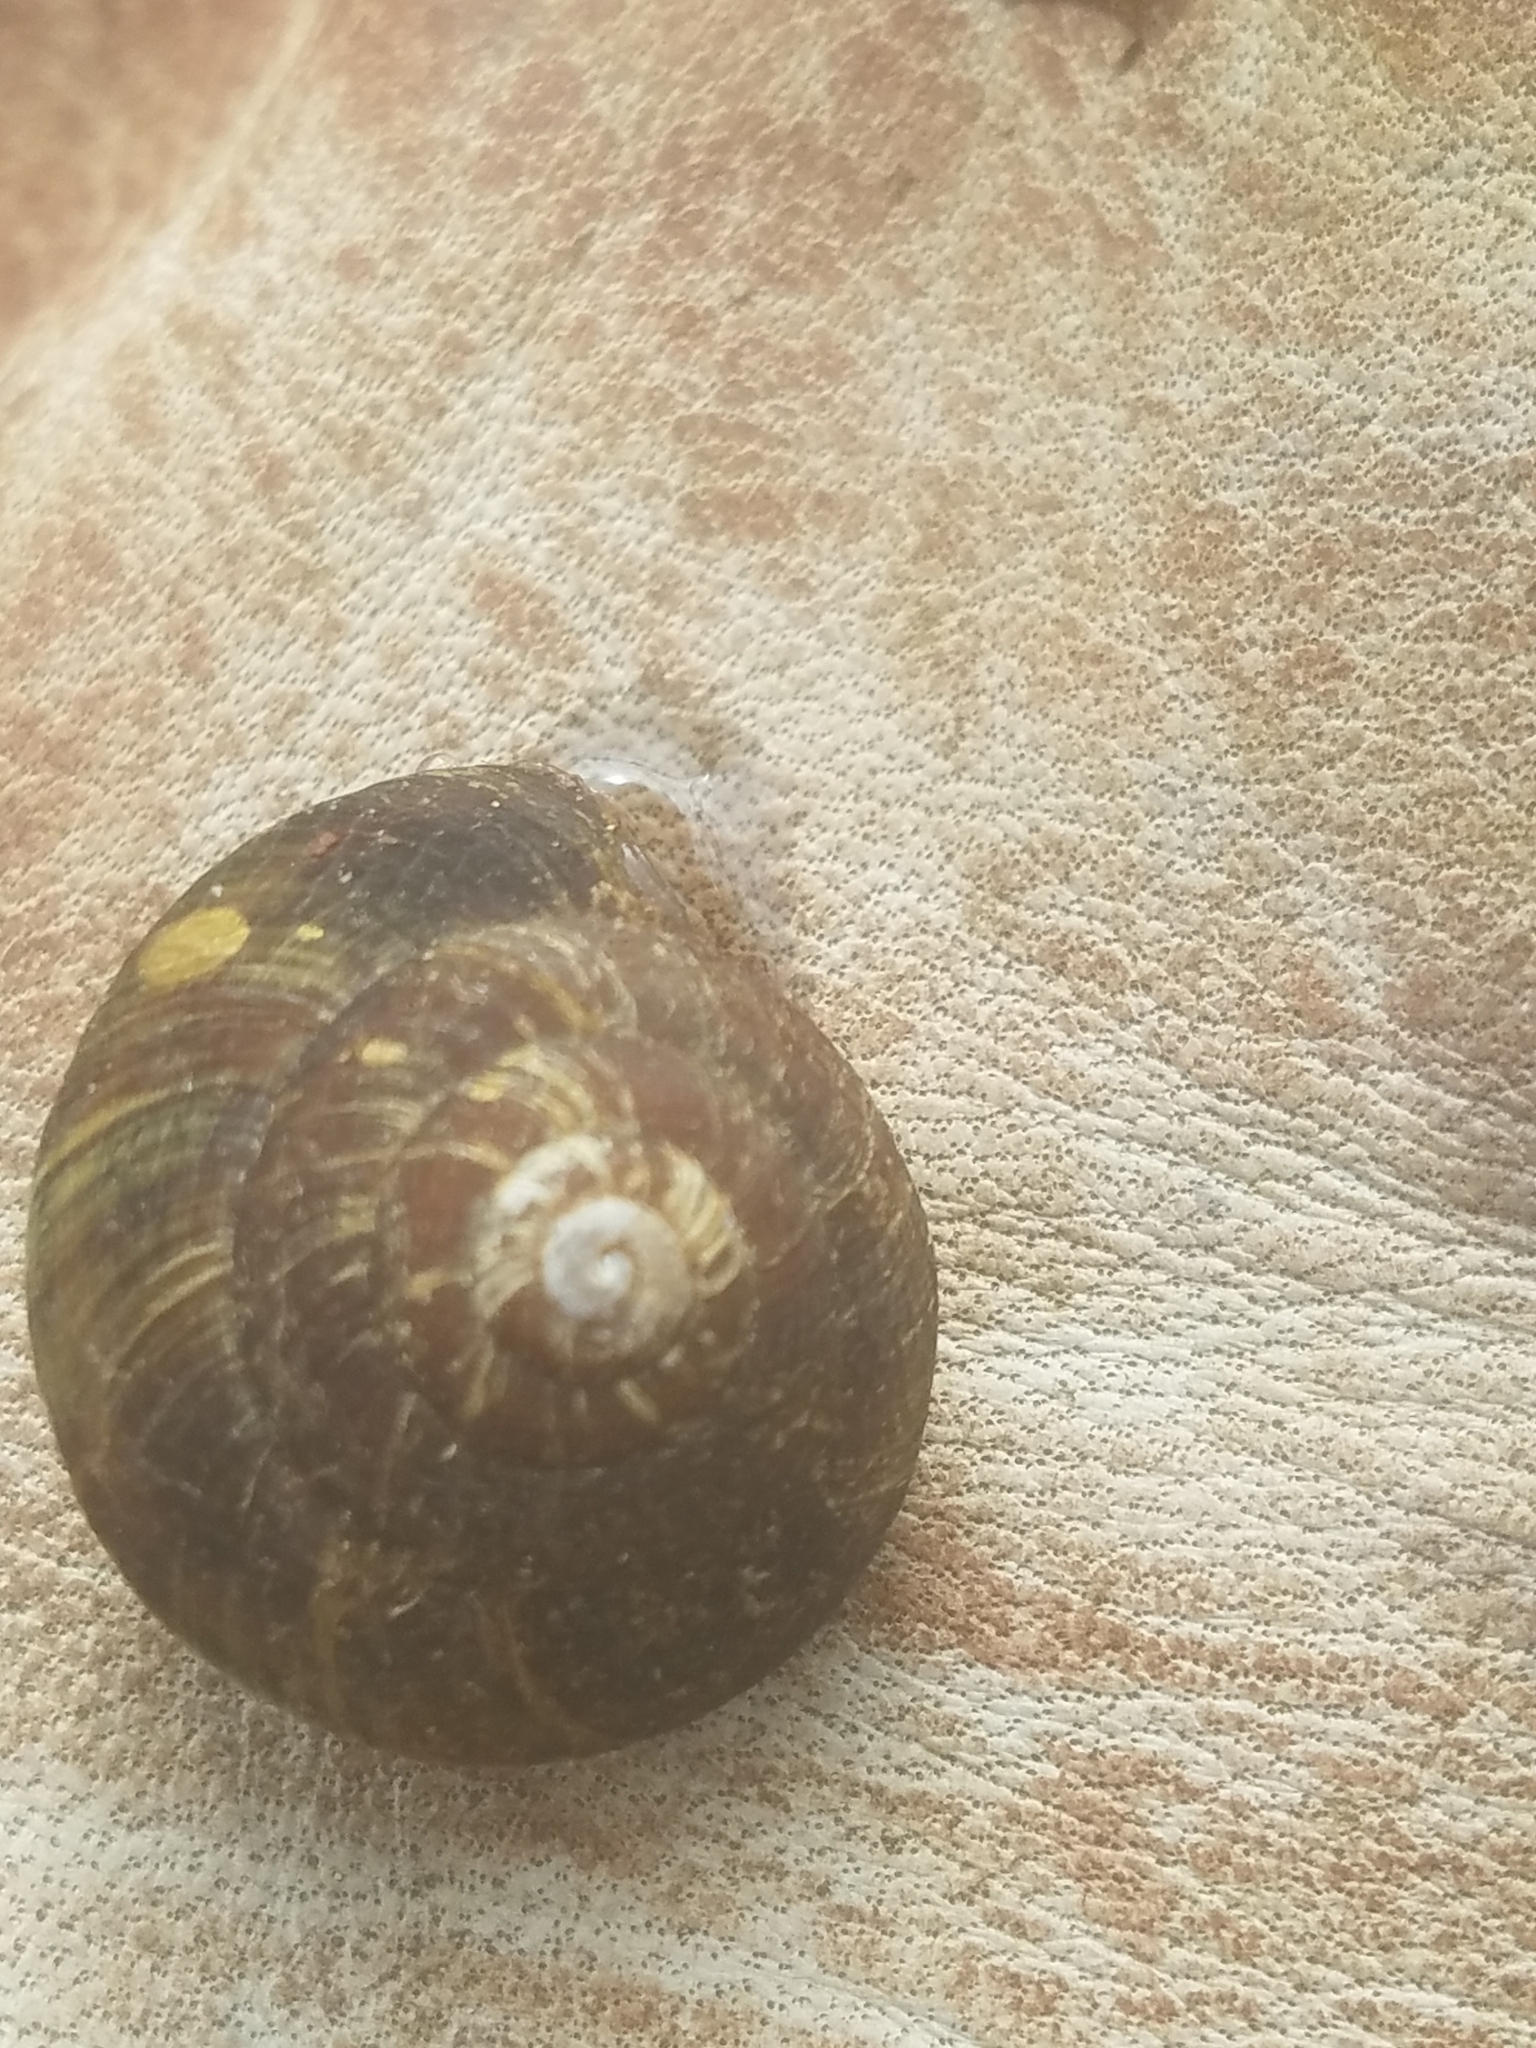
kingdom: Animalia
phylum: Mollusca
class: Gastropoda
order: Stylommatophora
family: Xanthonychidae
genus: Monadenia
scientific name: Monadenia fidelis
